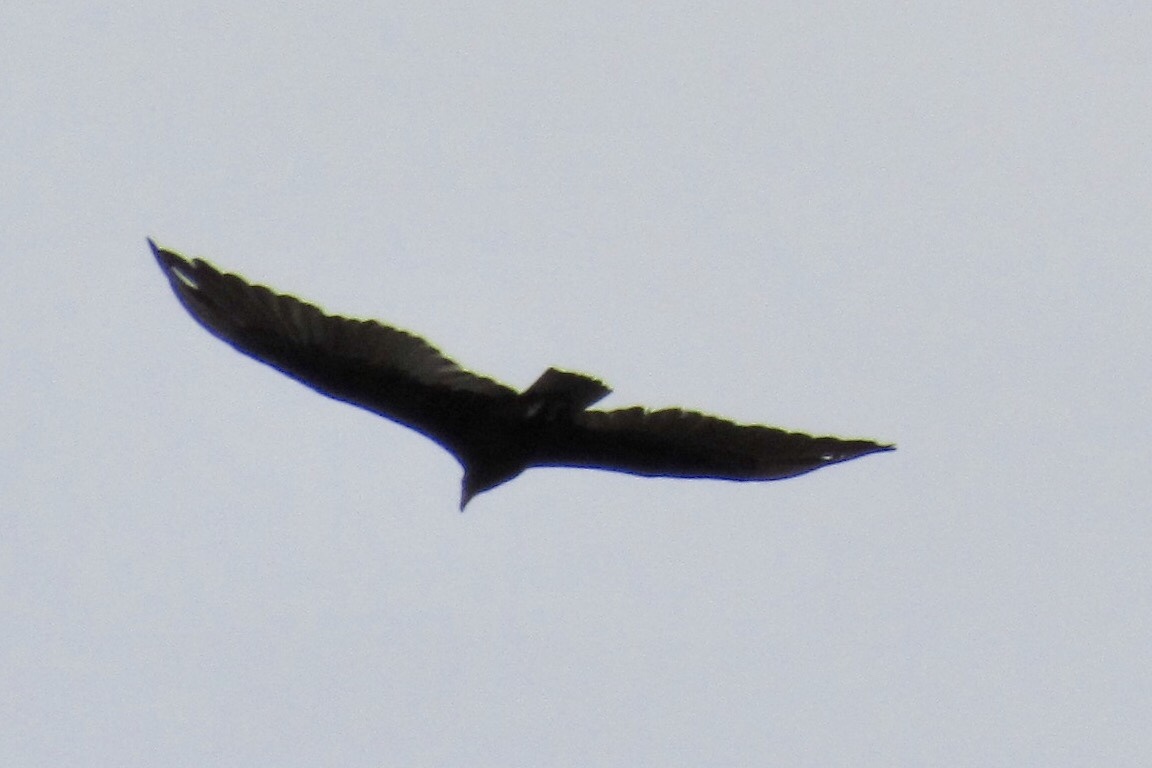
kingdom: Animalia
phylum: Chordata
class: Aves
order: Accipitriformes
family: Cathartidae
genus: Cathartes
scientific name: Cathartes aura
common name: Turkey vulture
